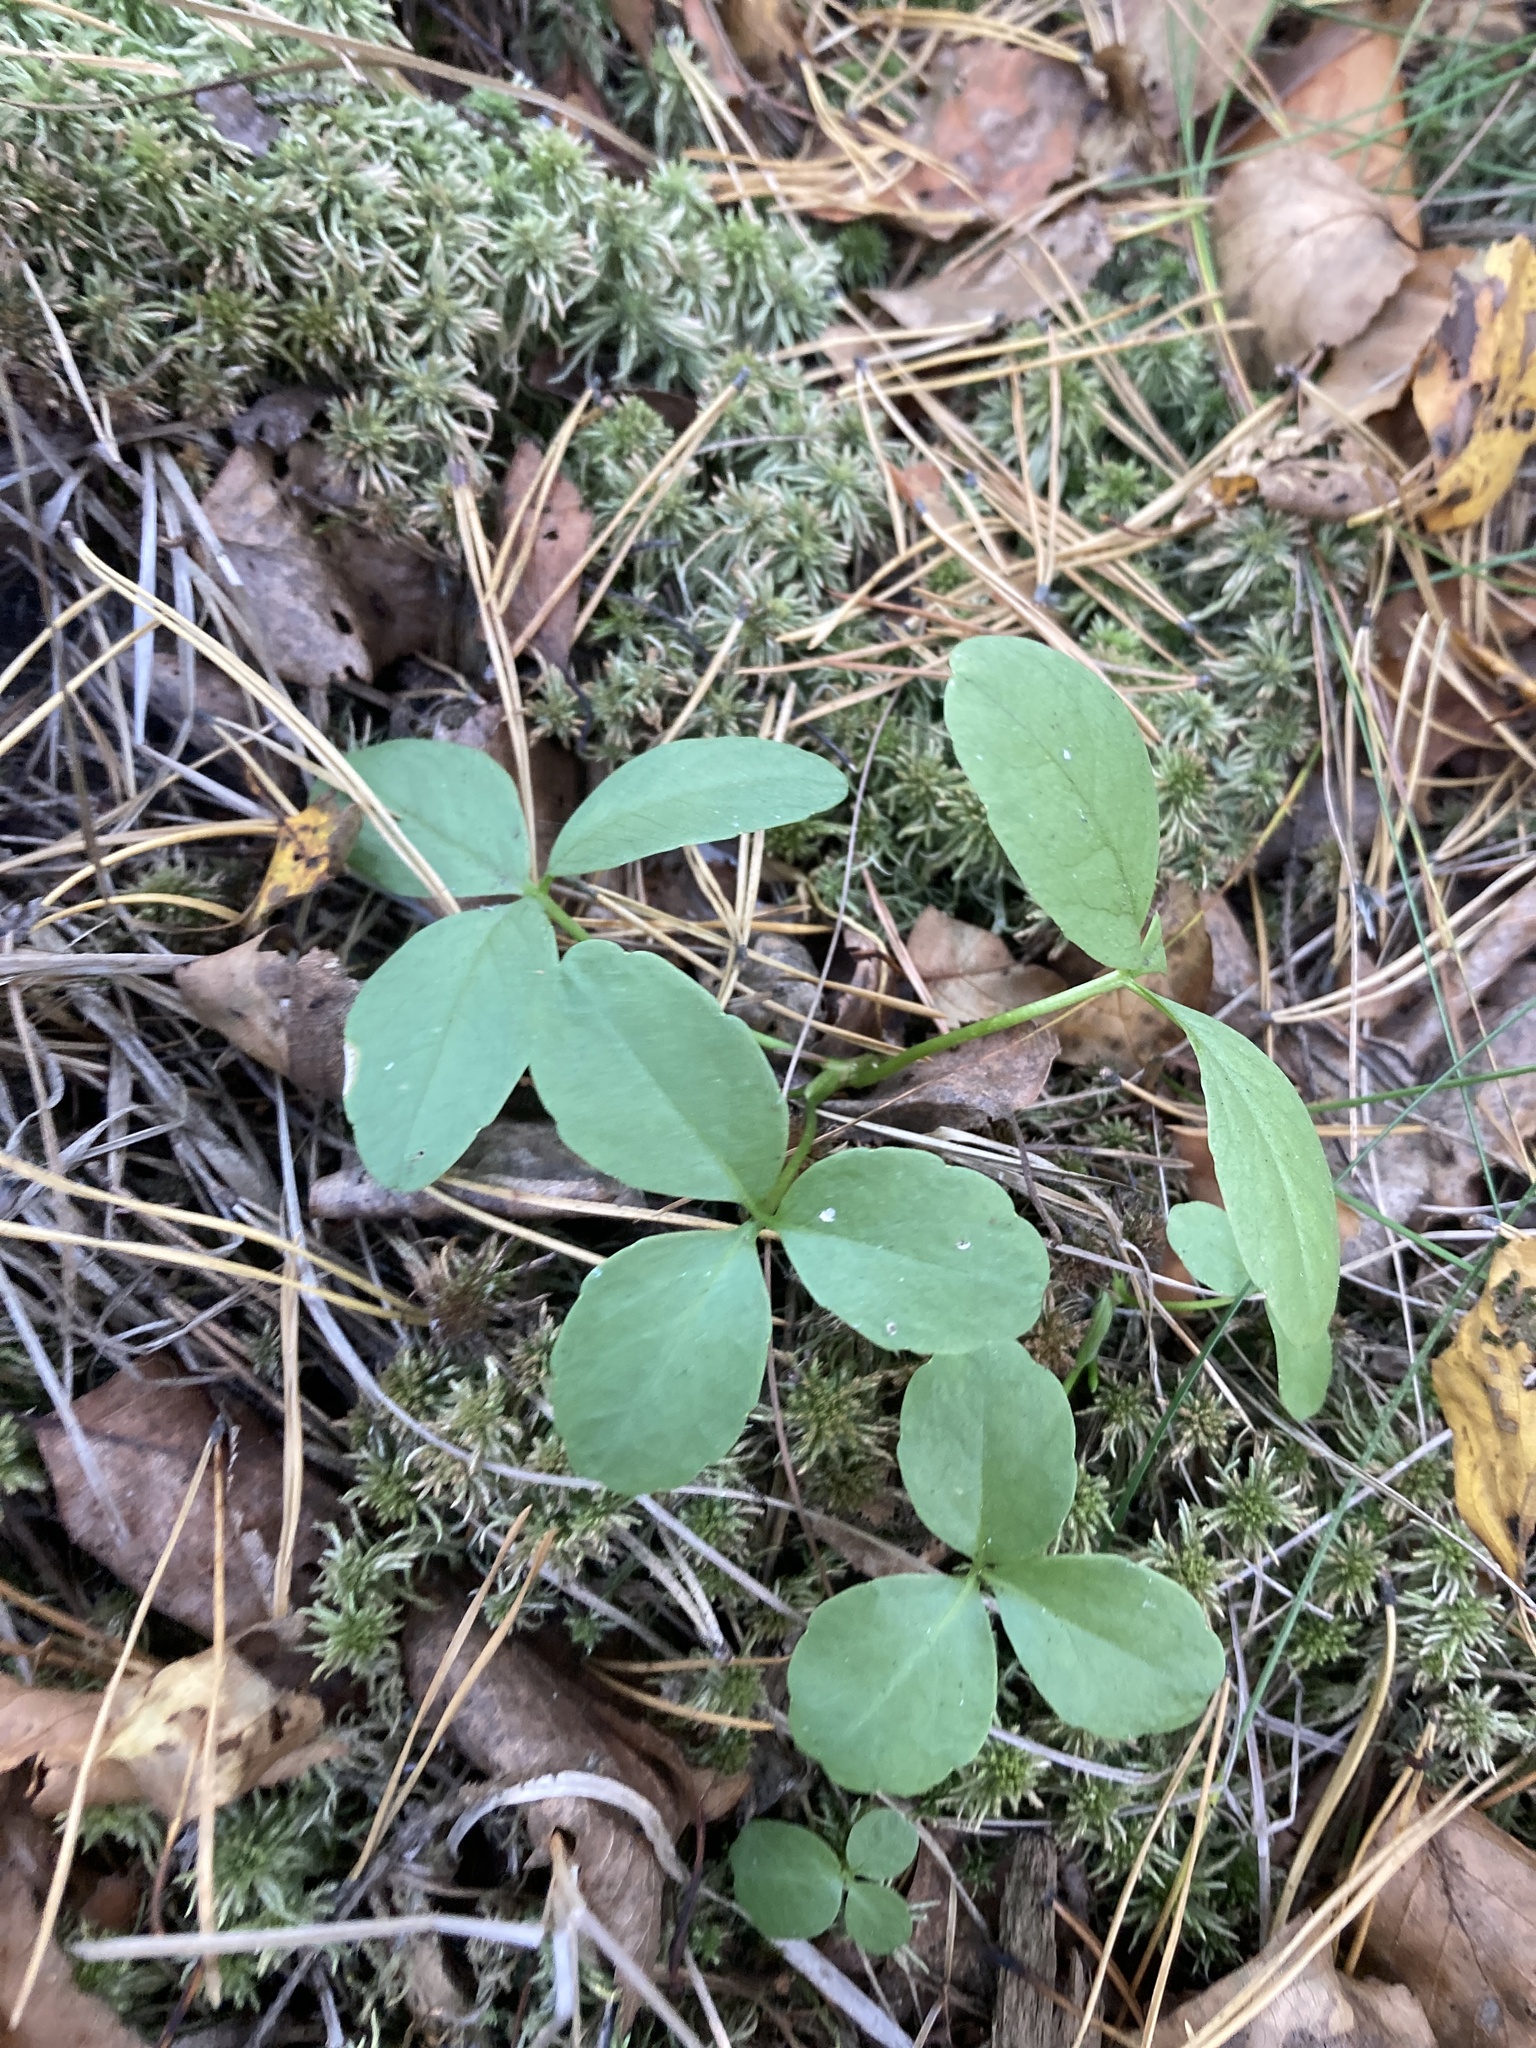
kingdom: Plantae
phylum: Tracheophyta
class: Magnoliopsida
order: Asterales
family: Menyanthaceae
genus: Menyanthes
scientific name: Menyanthes trifoliata
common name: Bogbean
